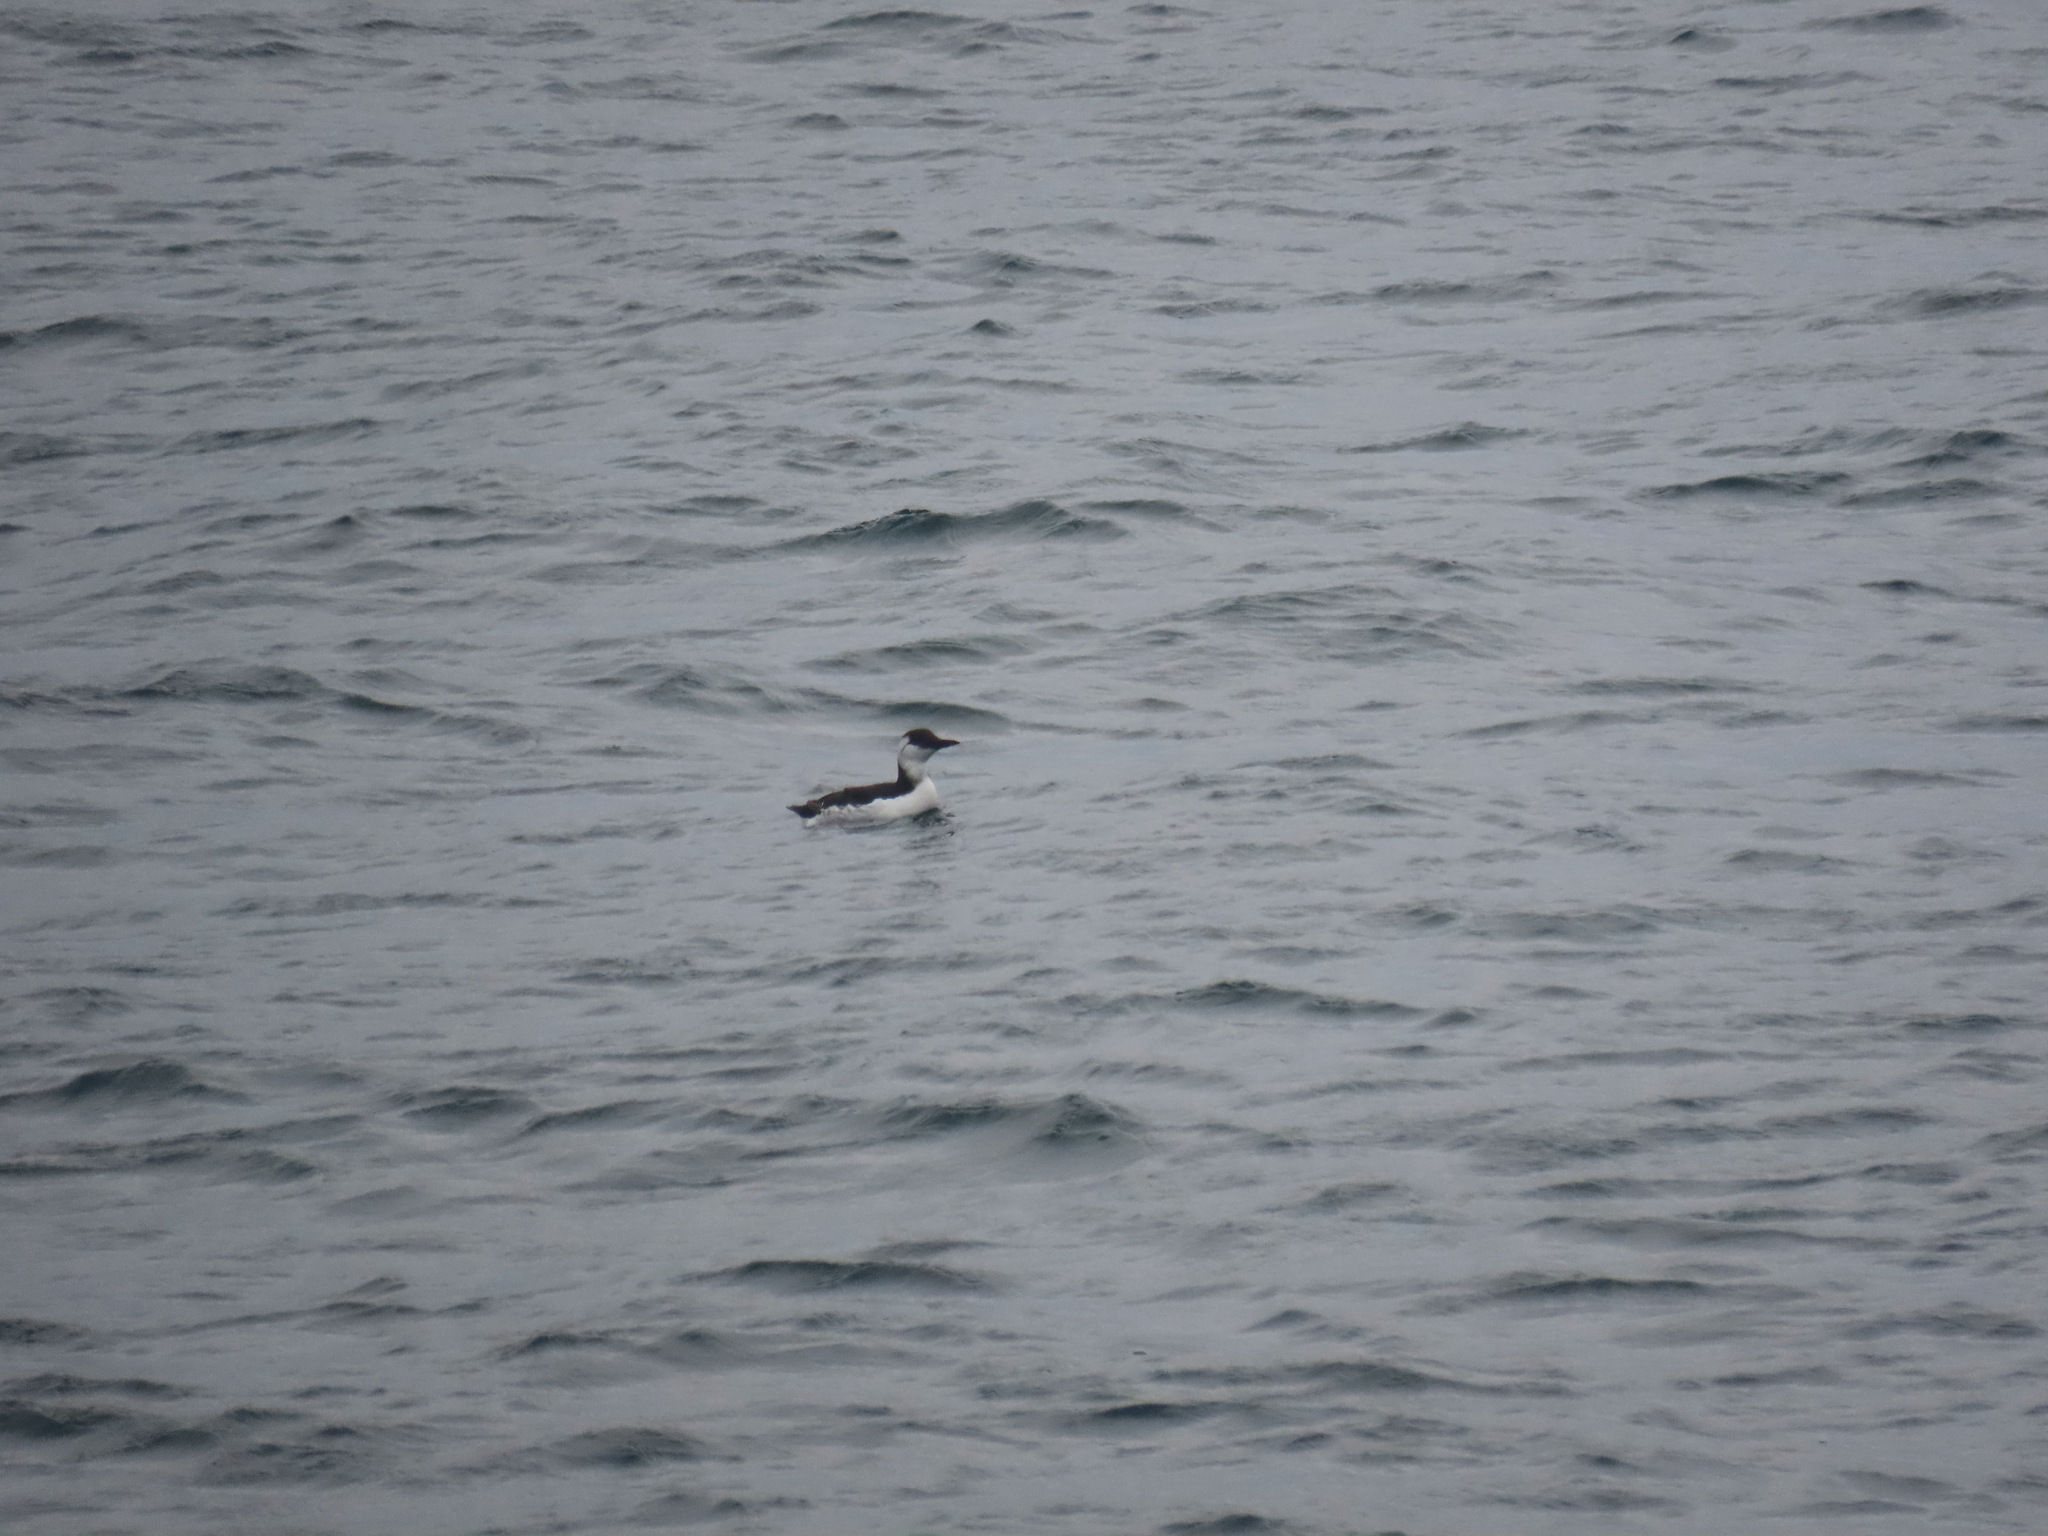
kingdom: Animalia
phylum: Chordata
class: Aves
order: Charadriiformes
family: Alcidae
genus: Uria
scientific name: Uria aalge
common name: Common murre
